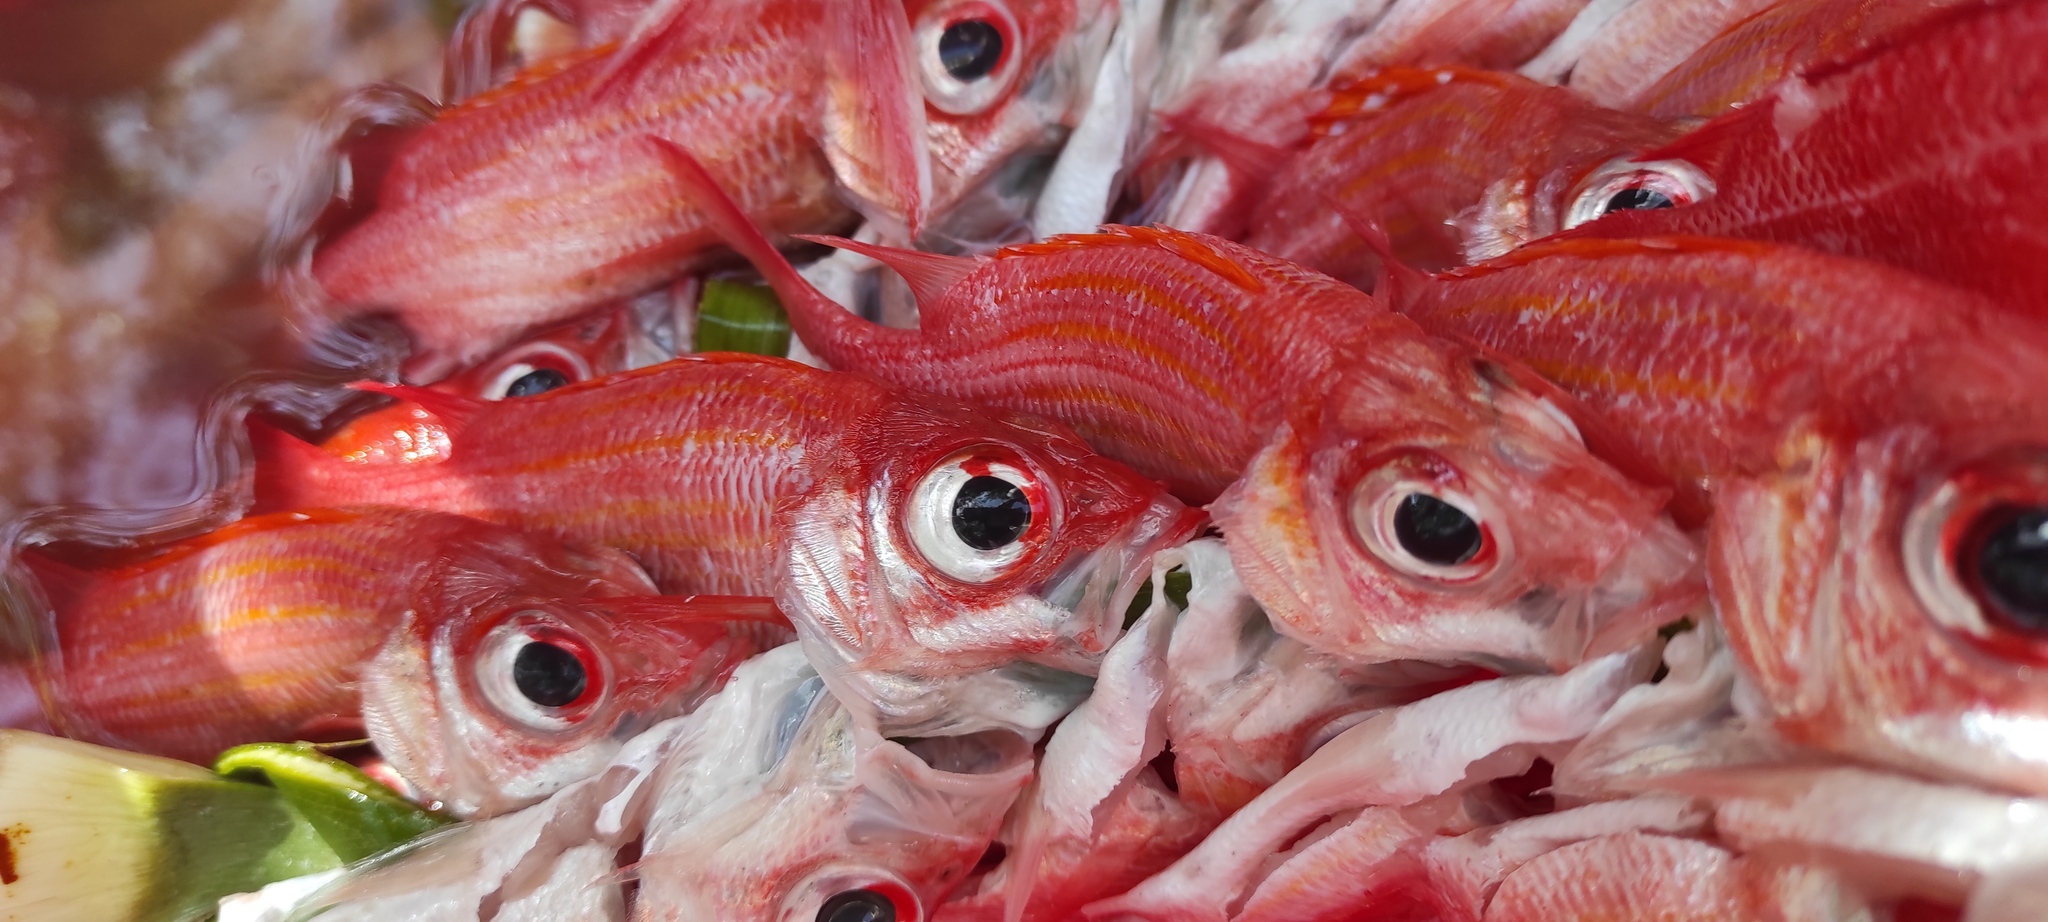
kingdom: Animalia
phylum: Chordata
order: Beryciformes
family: Holocentridae
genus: Neoniphon
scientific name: Neoniphon marianus
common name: Longjaw squirrelfish
